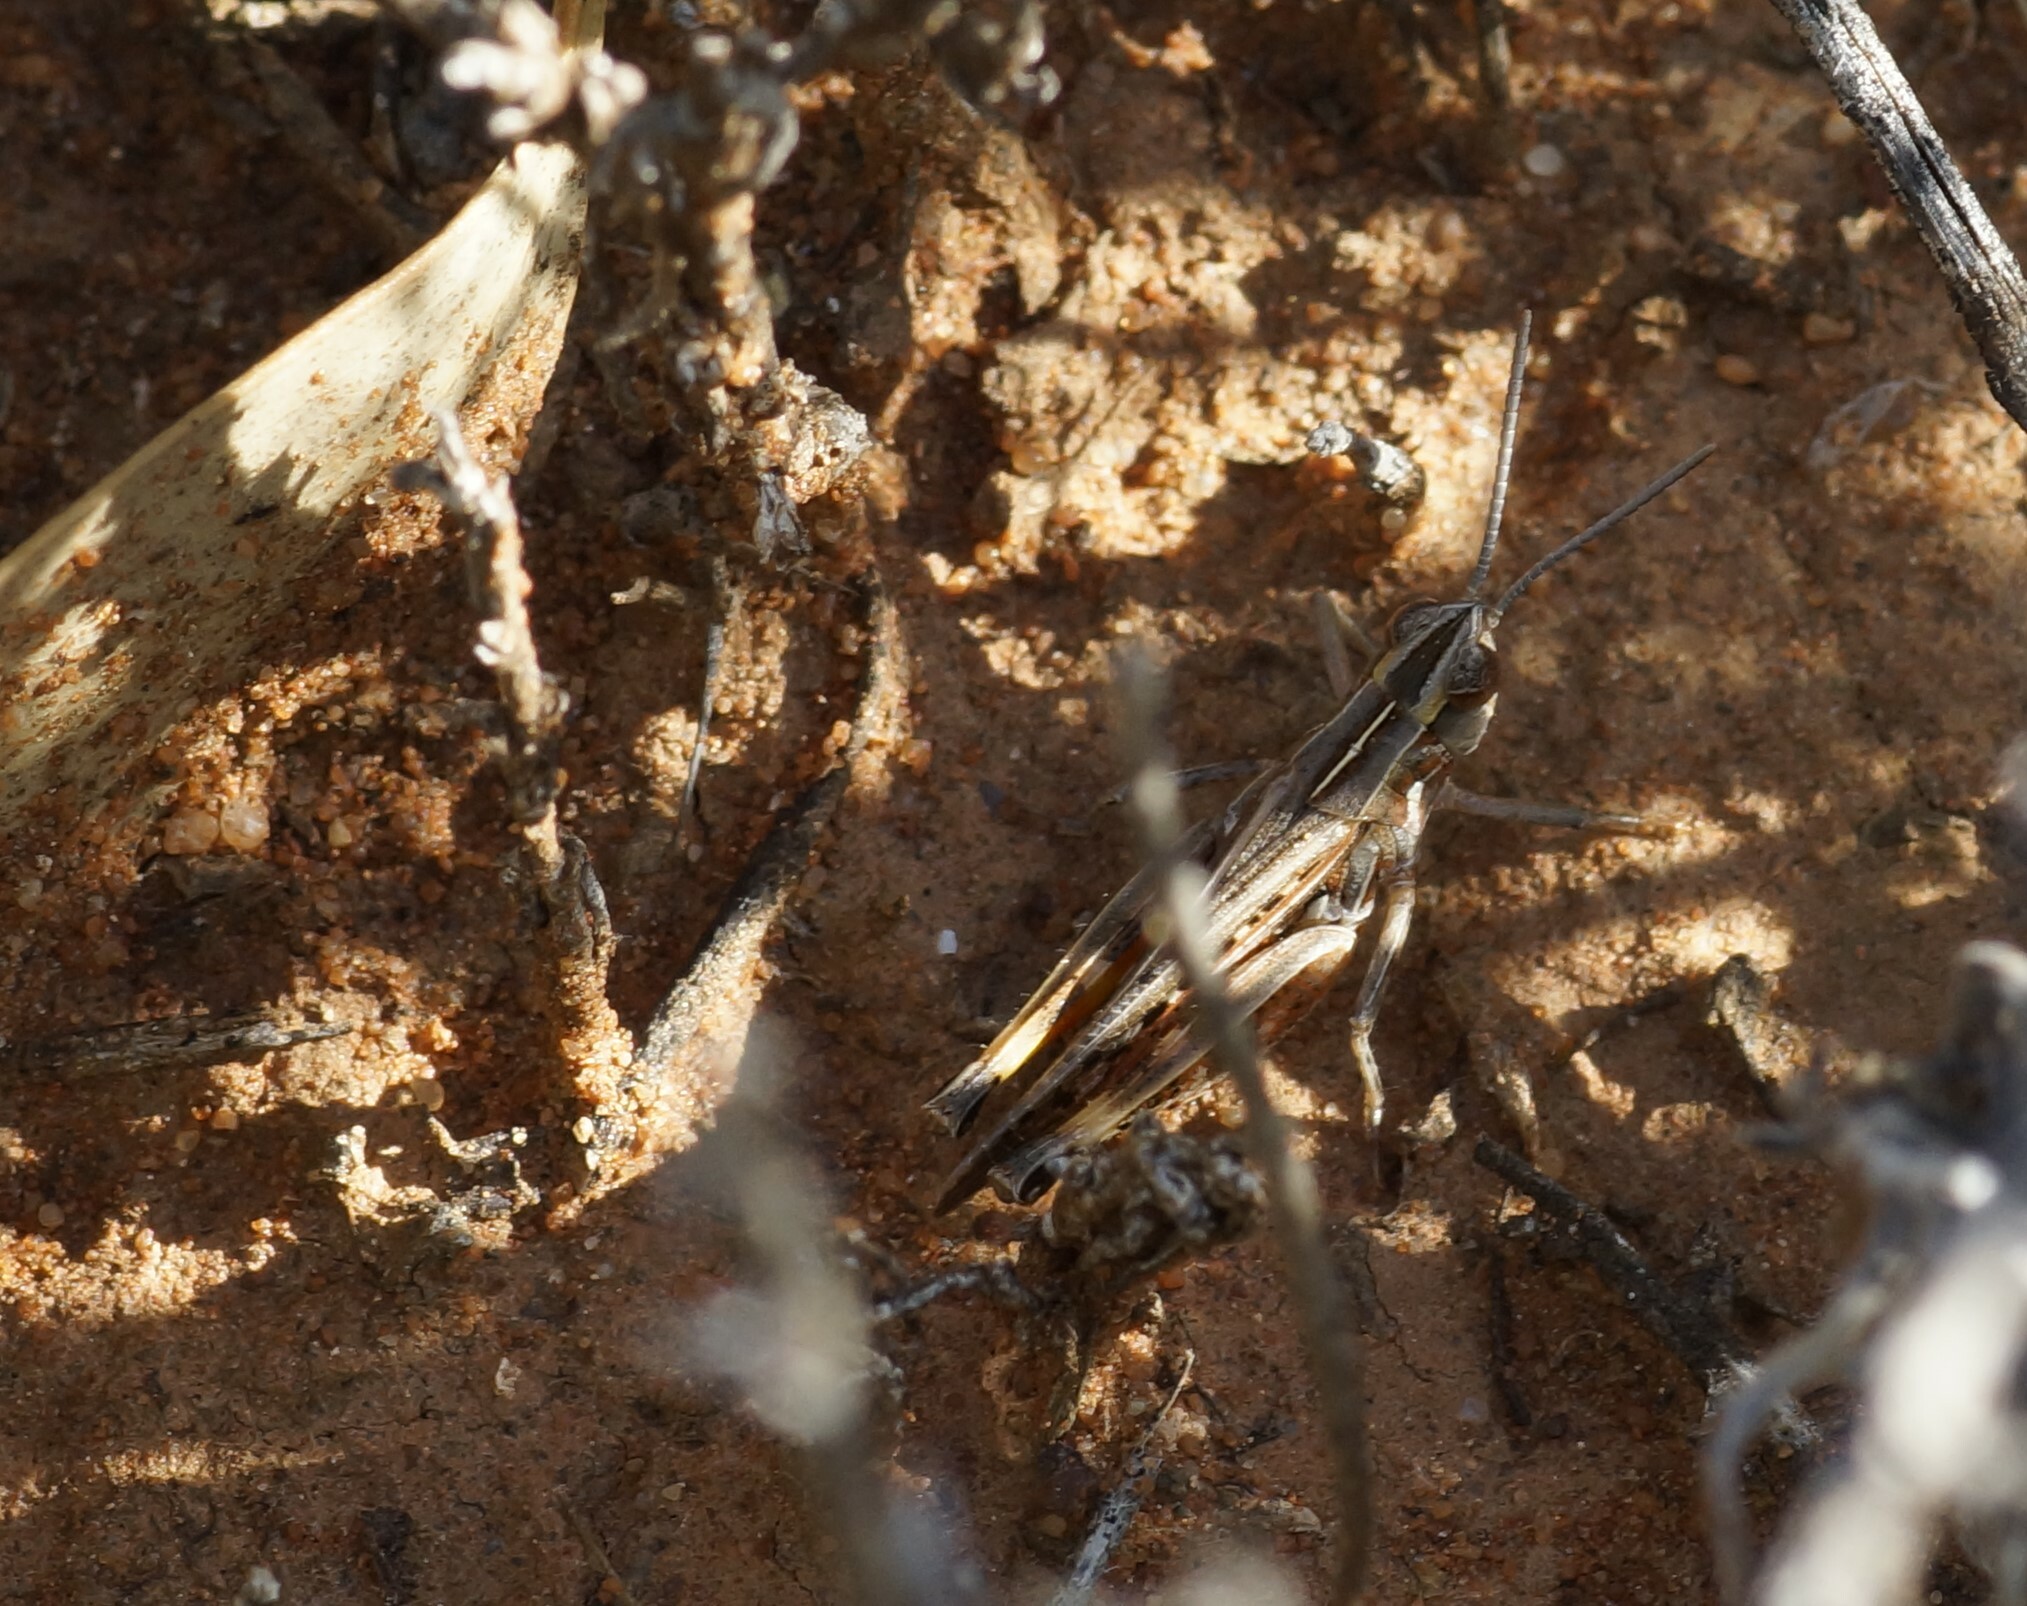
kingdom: Animalia
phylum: Arthropoda
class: Insecta
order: Orthoptera
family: Acrididae
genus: Azelota
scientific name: Azelota
